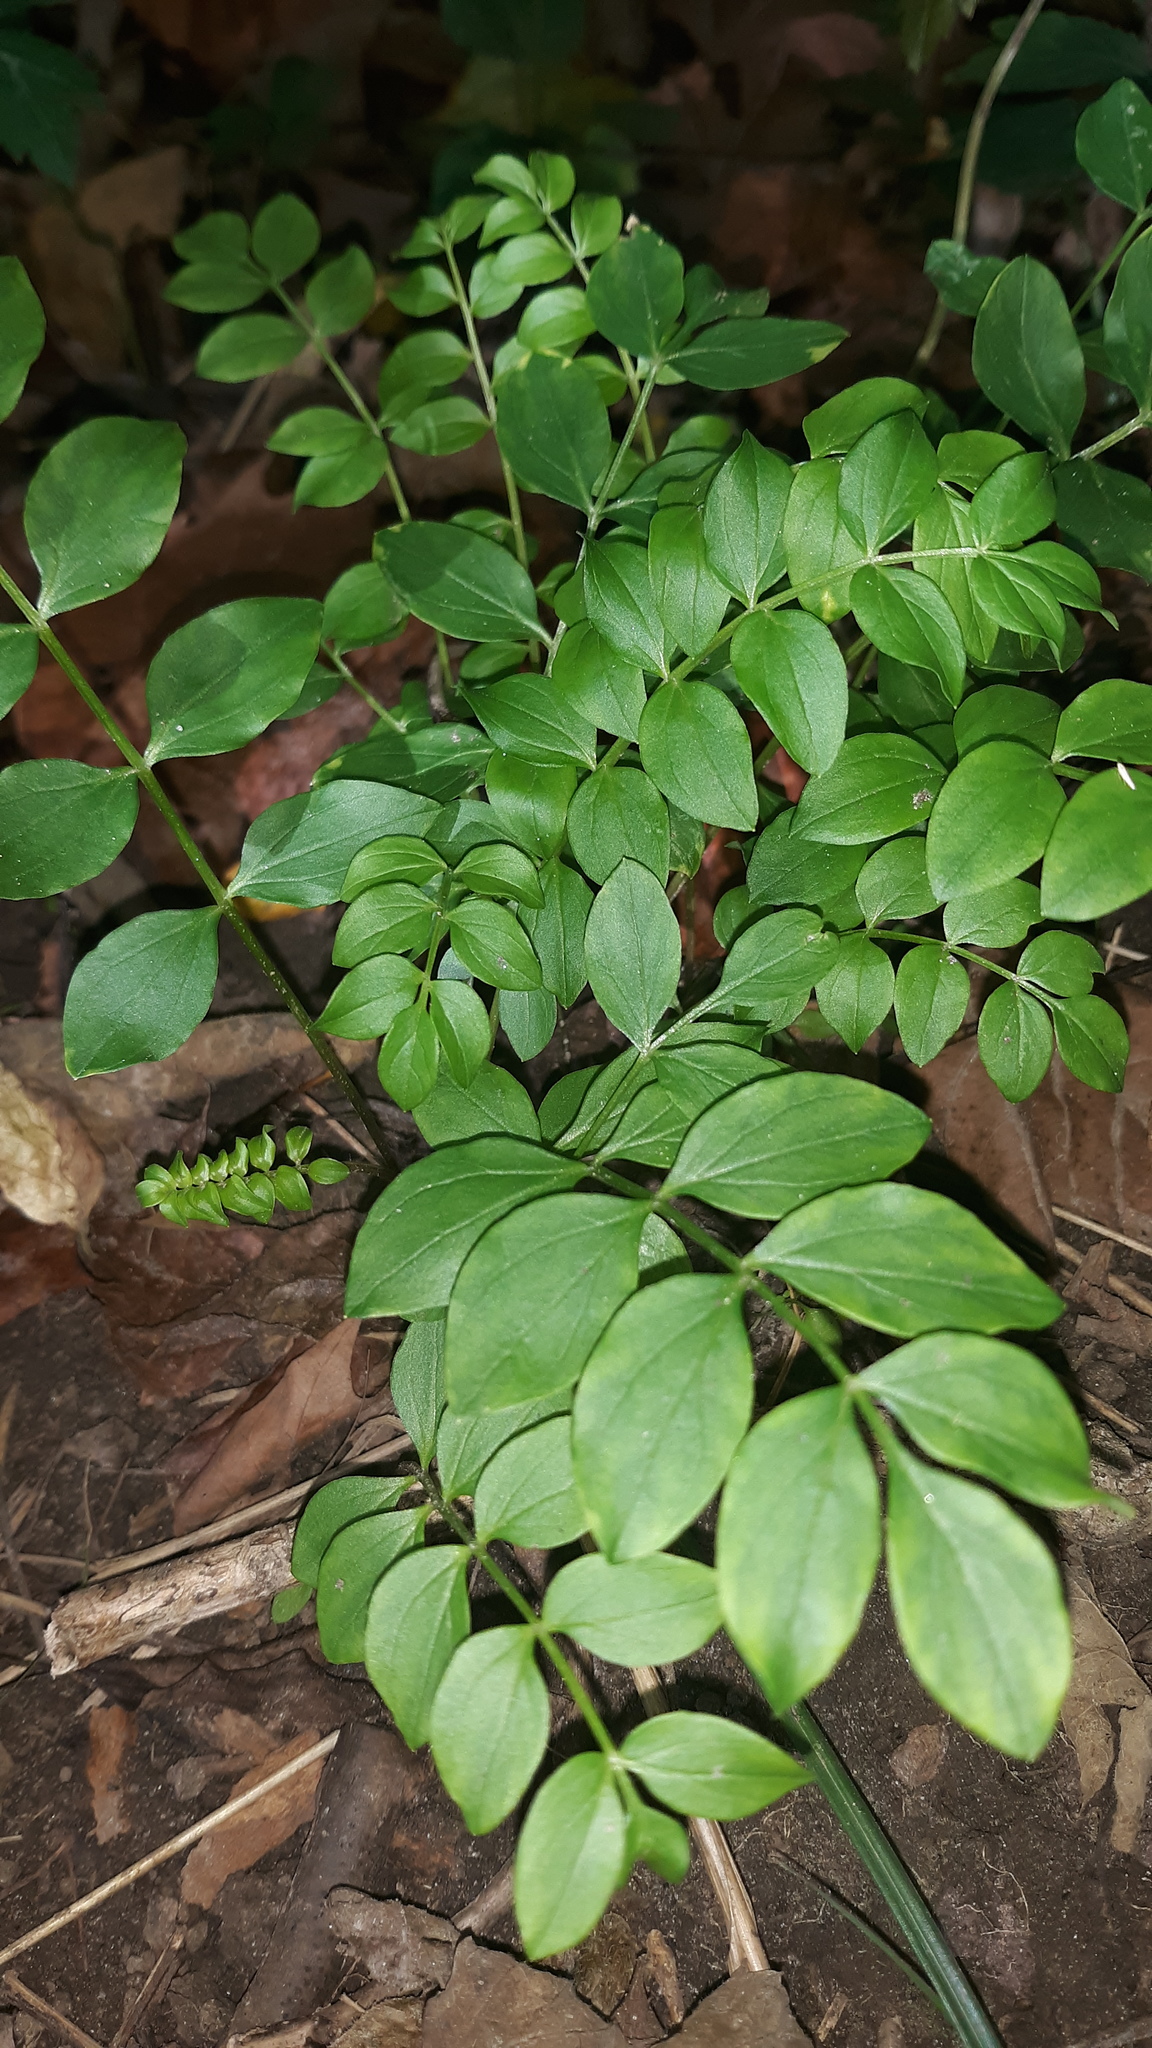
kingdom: Plantae
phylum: Tracheophyta
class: Magnoliopsida
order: Ericales
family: Polemoniaceae
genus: Polemonium
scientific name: Polemonium reptans
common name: Creeping jacob's-ladder
